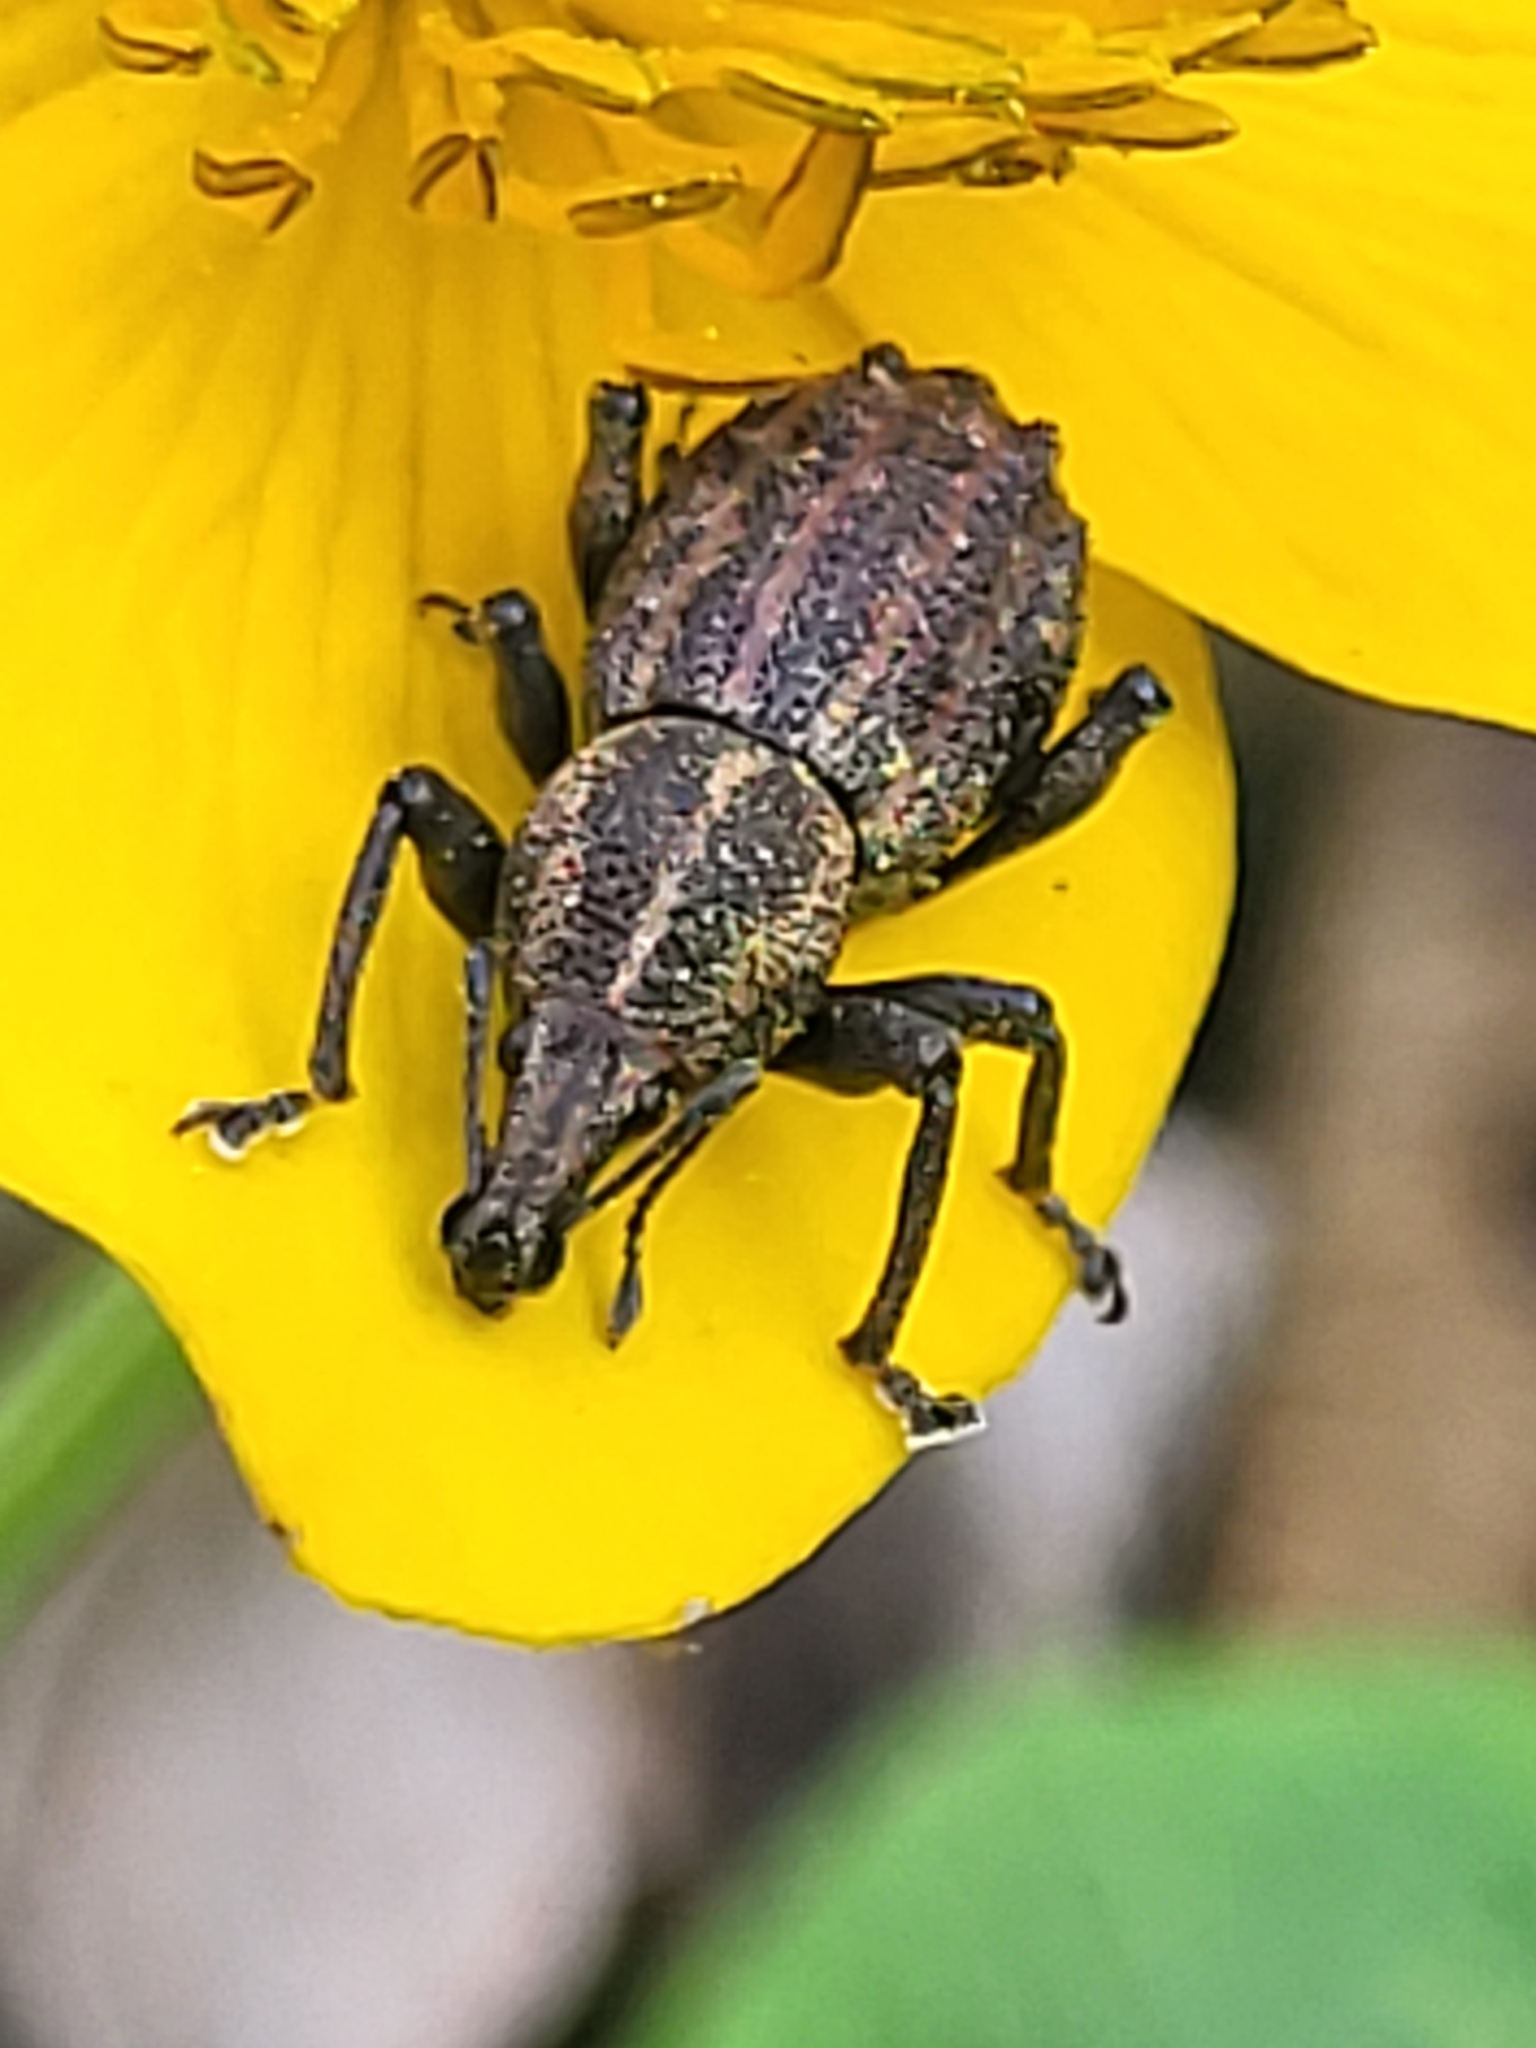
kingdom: Animalia
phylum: Arthropoda
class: Insecta
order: Coleoptera
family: Curculionidae
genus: Tylotus
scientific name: Tylotus chrysops
